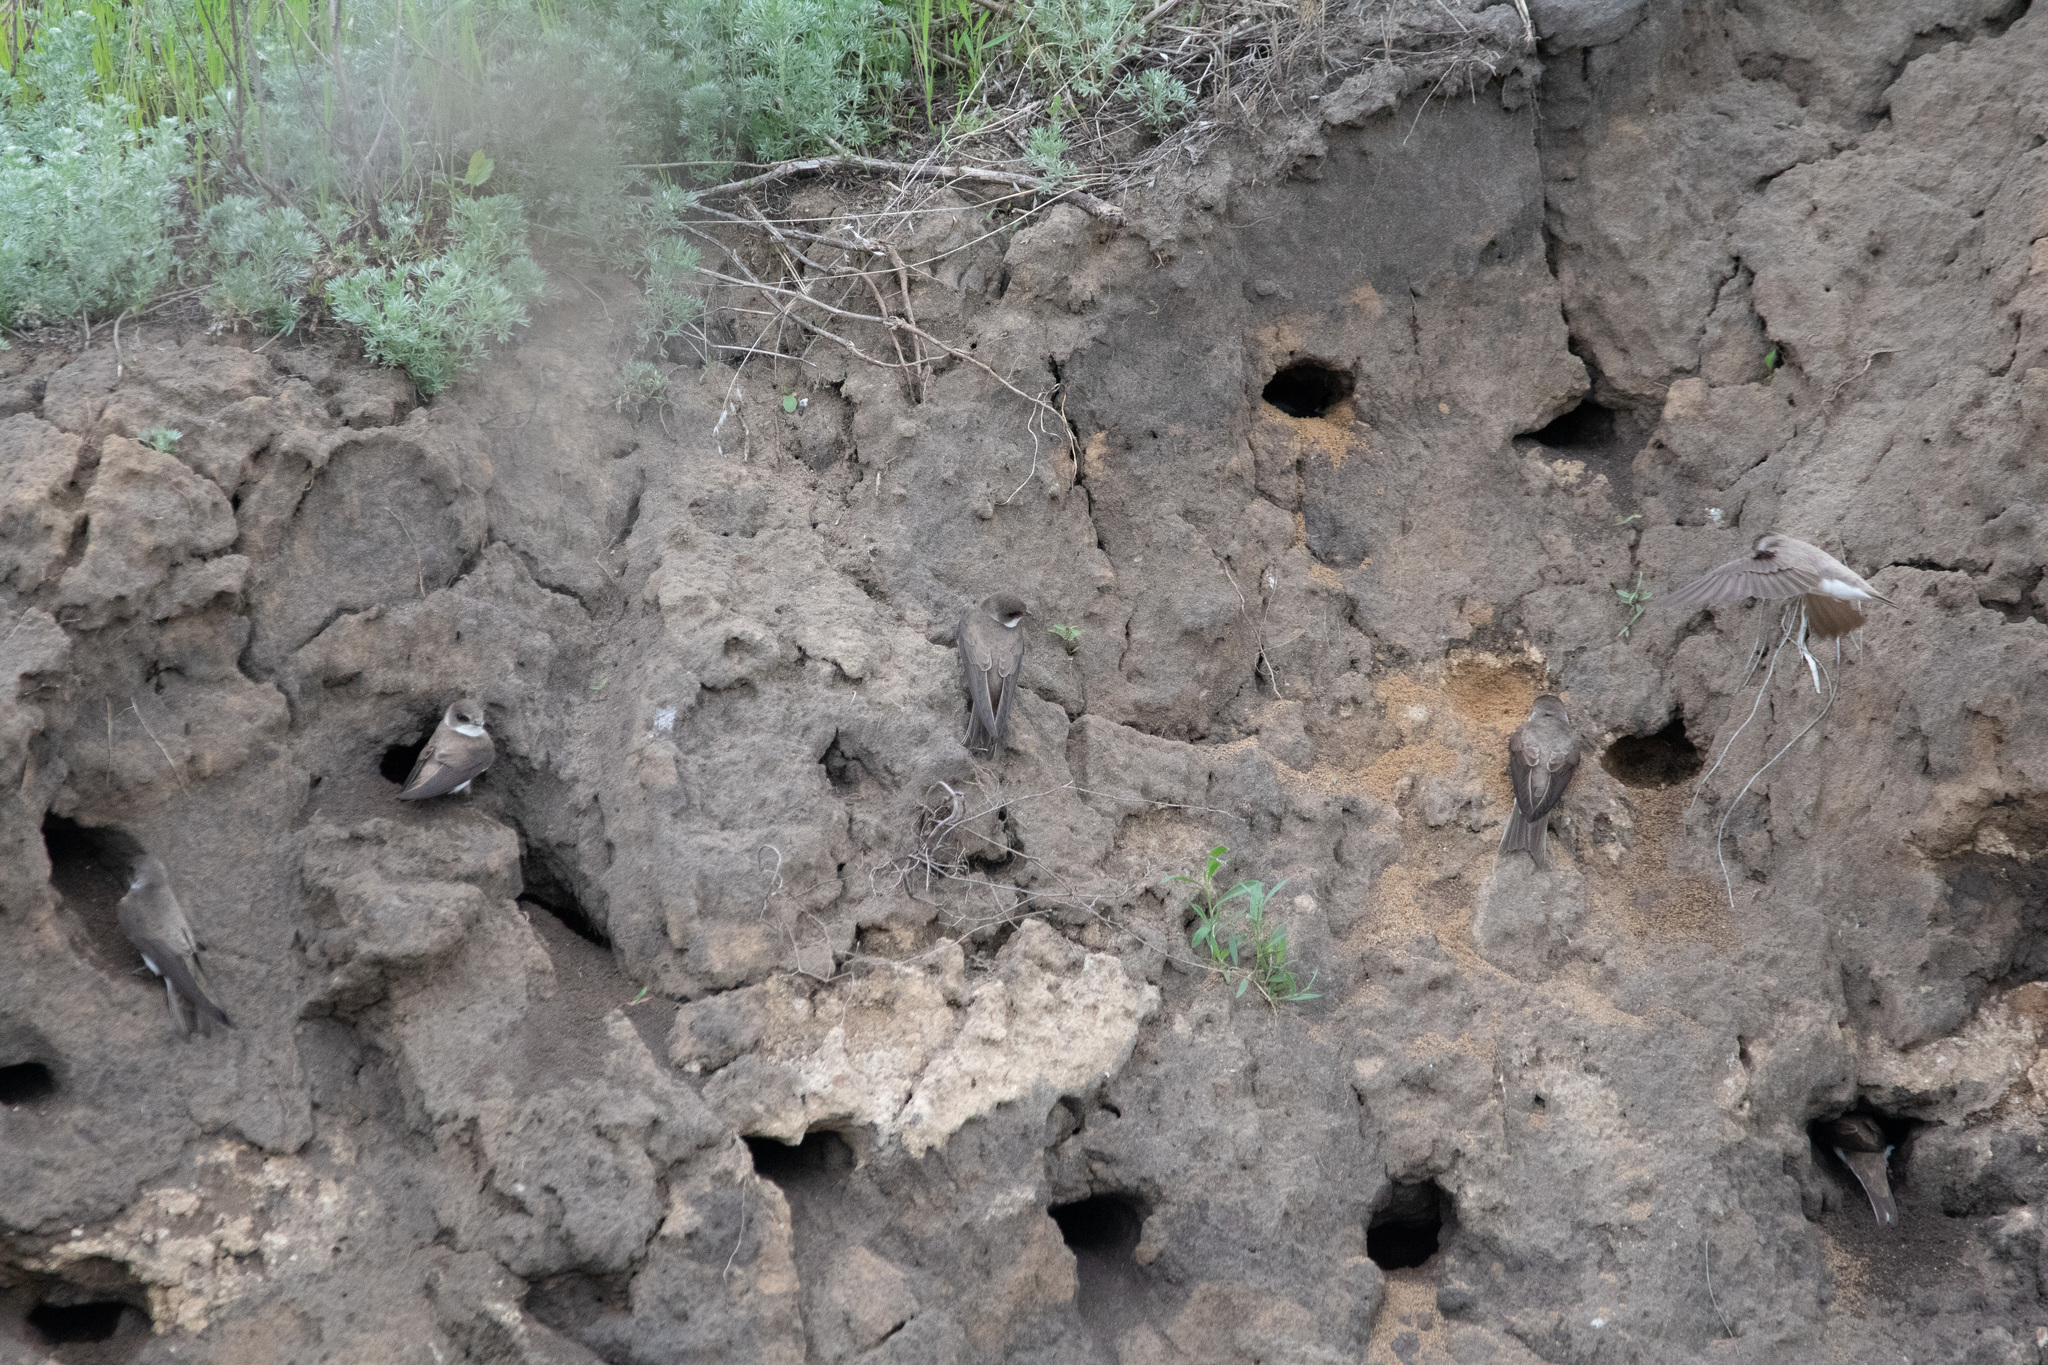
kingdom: Animalia
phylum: Chordata
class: Aves
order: Passeriformes
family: Hirundinidae
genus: Riparia
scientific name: Riparia riparia
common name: Sand martin
